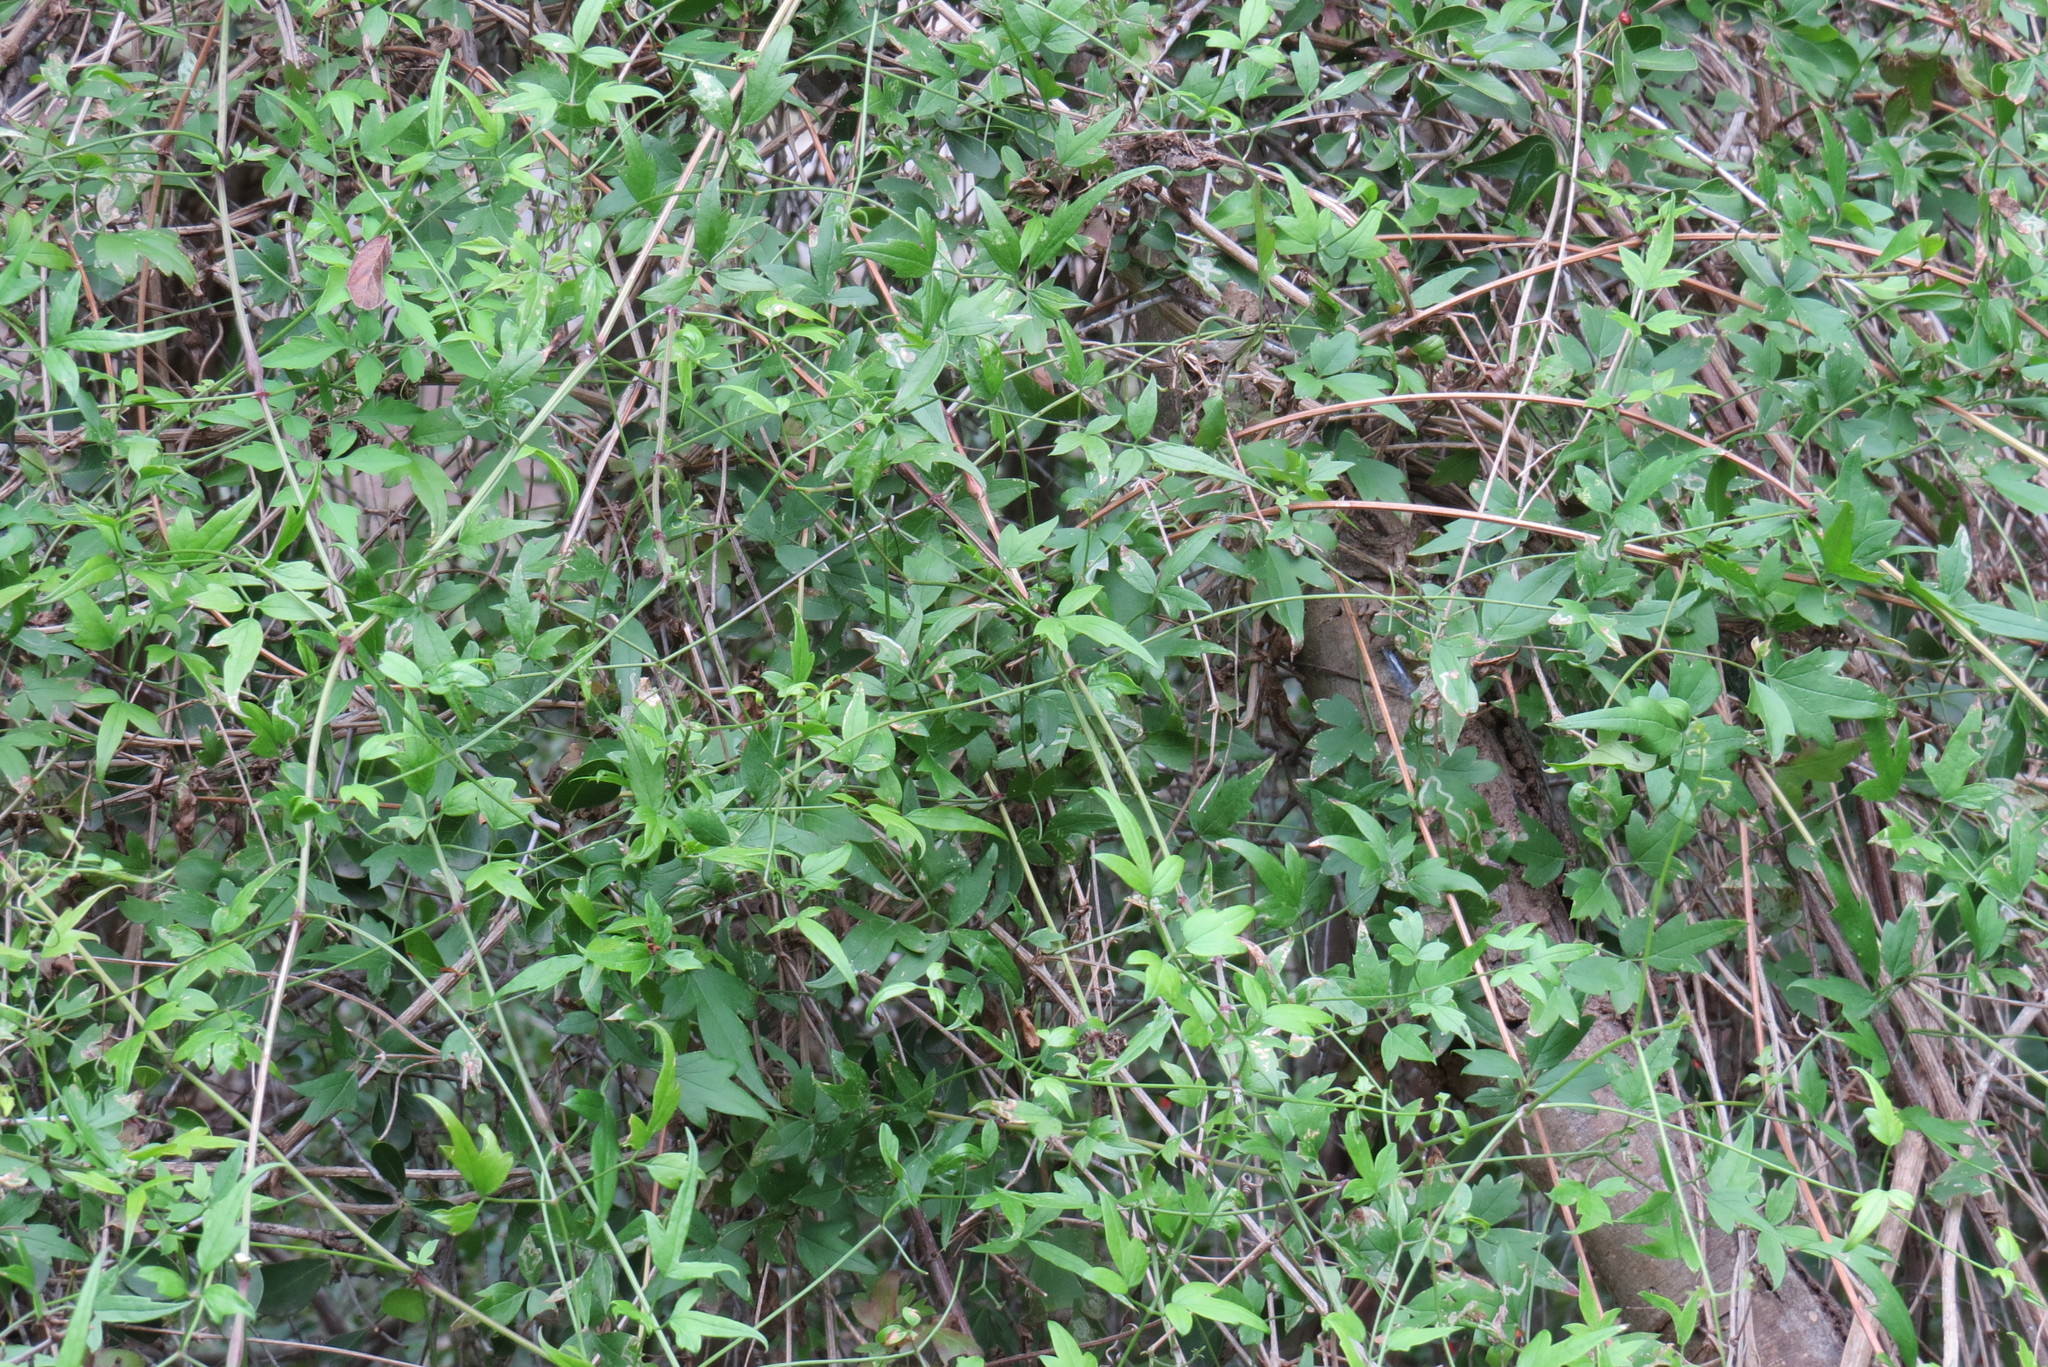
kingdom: Plantae
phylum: Tracheophyta
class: Magnoliopsida
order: Ranunculales
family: Ranunculaceae
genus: Clematis
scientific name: Clematis drummondii
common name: Texas virgin's bower
